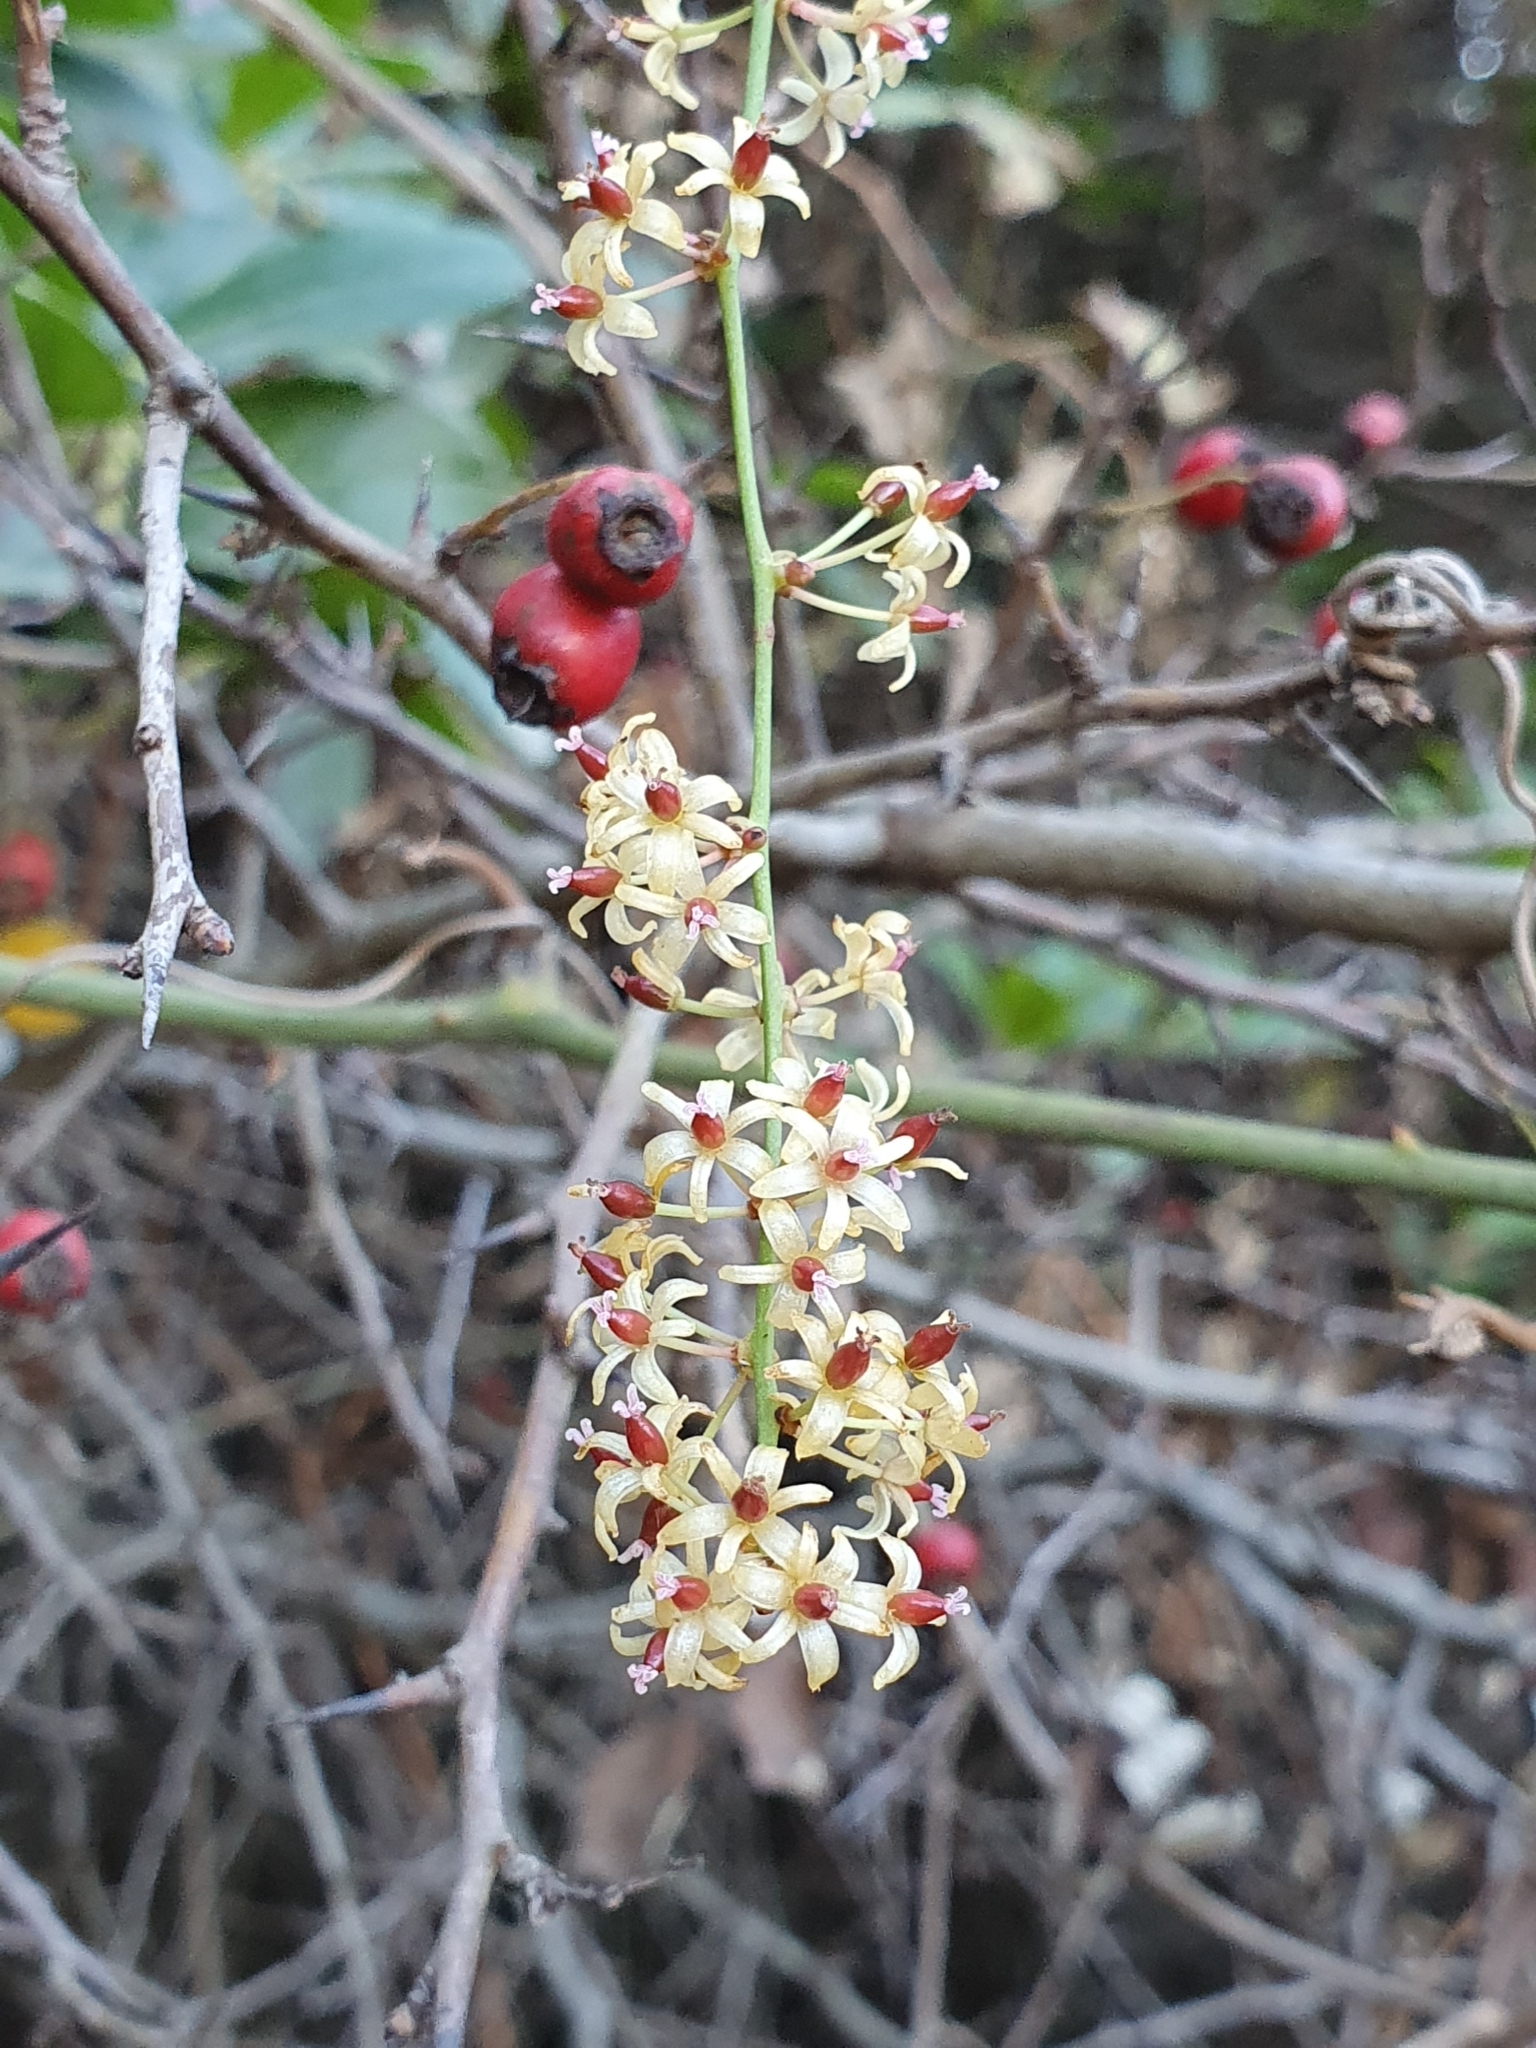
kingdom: Plantae
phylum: Tracheophyta
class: Liliopsida
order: Liliales
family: Smilacaceae
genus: Smilax
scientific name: Smilax aspera
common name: Common smilax
